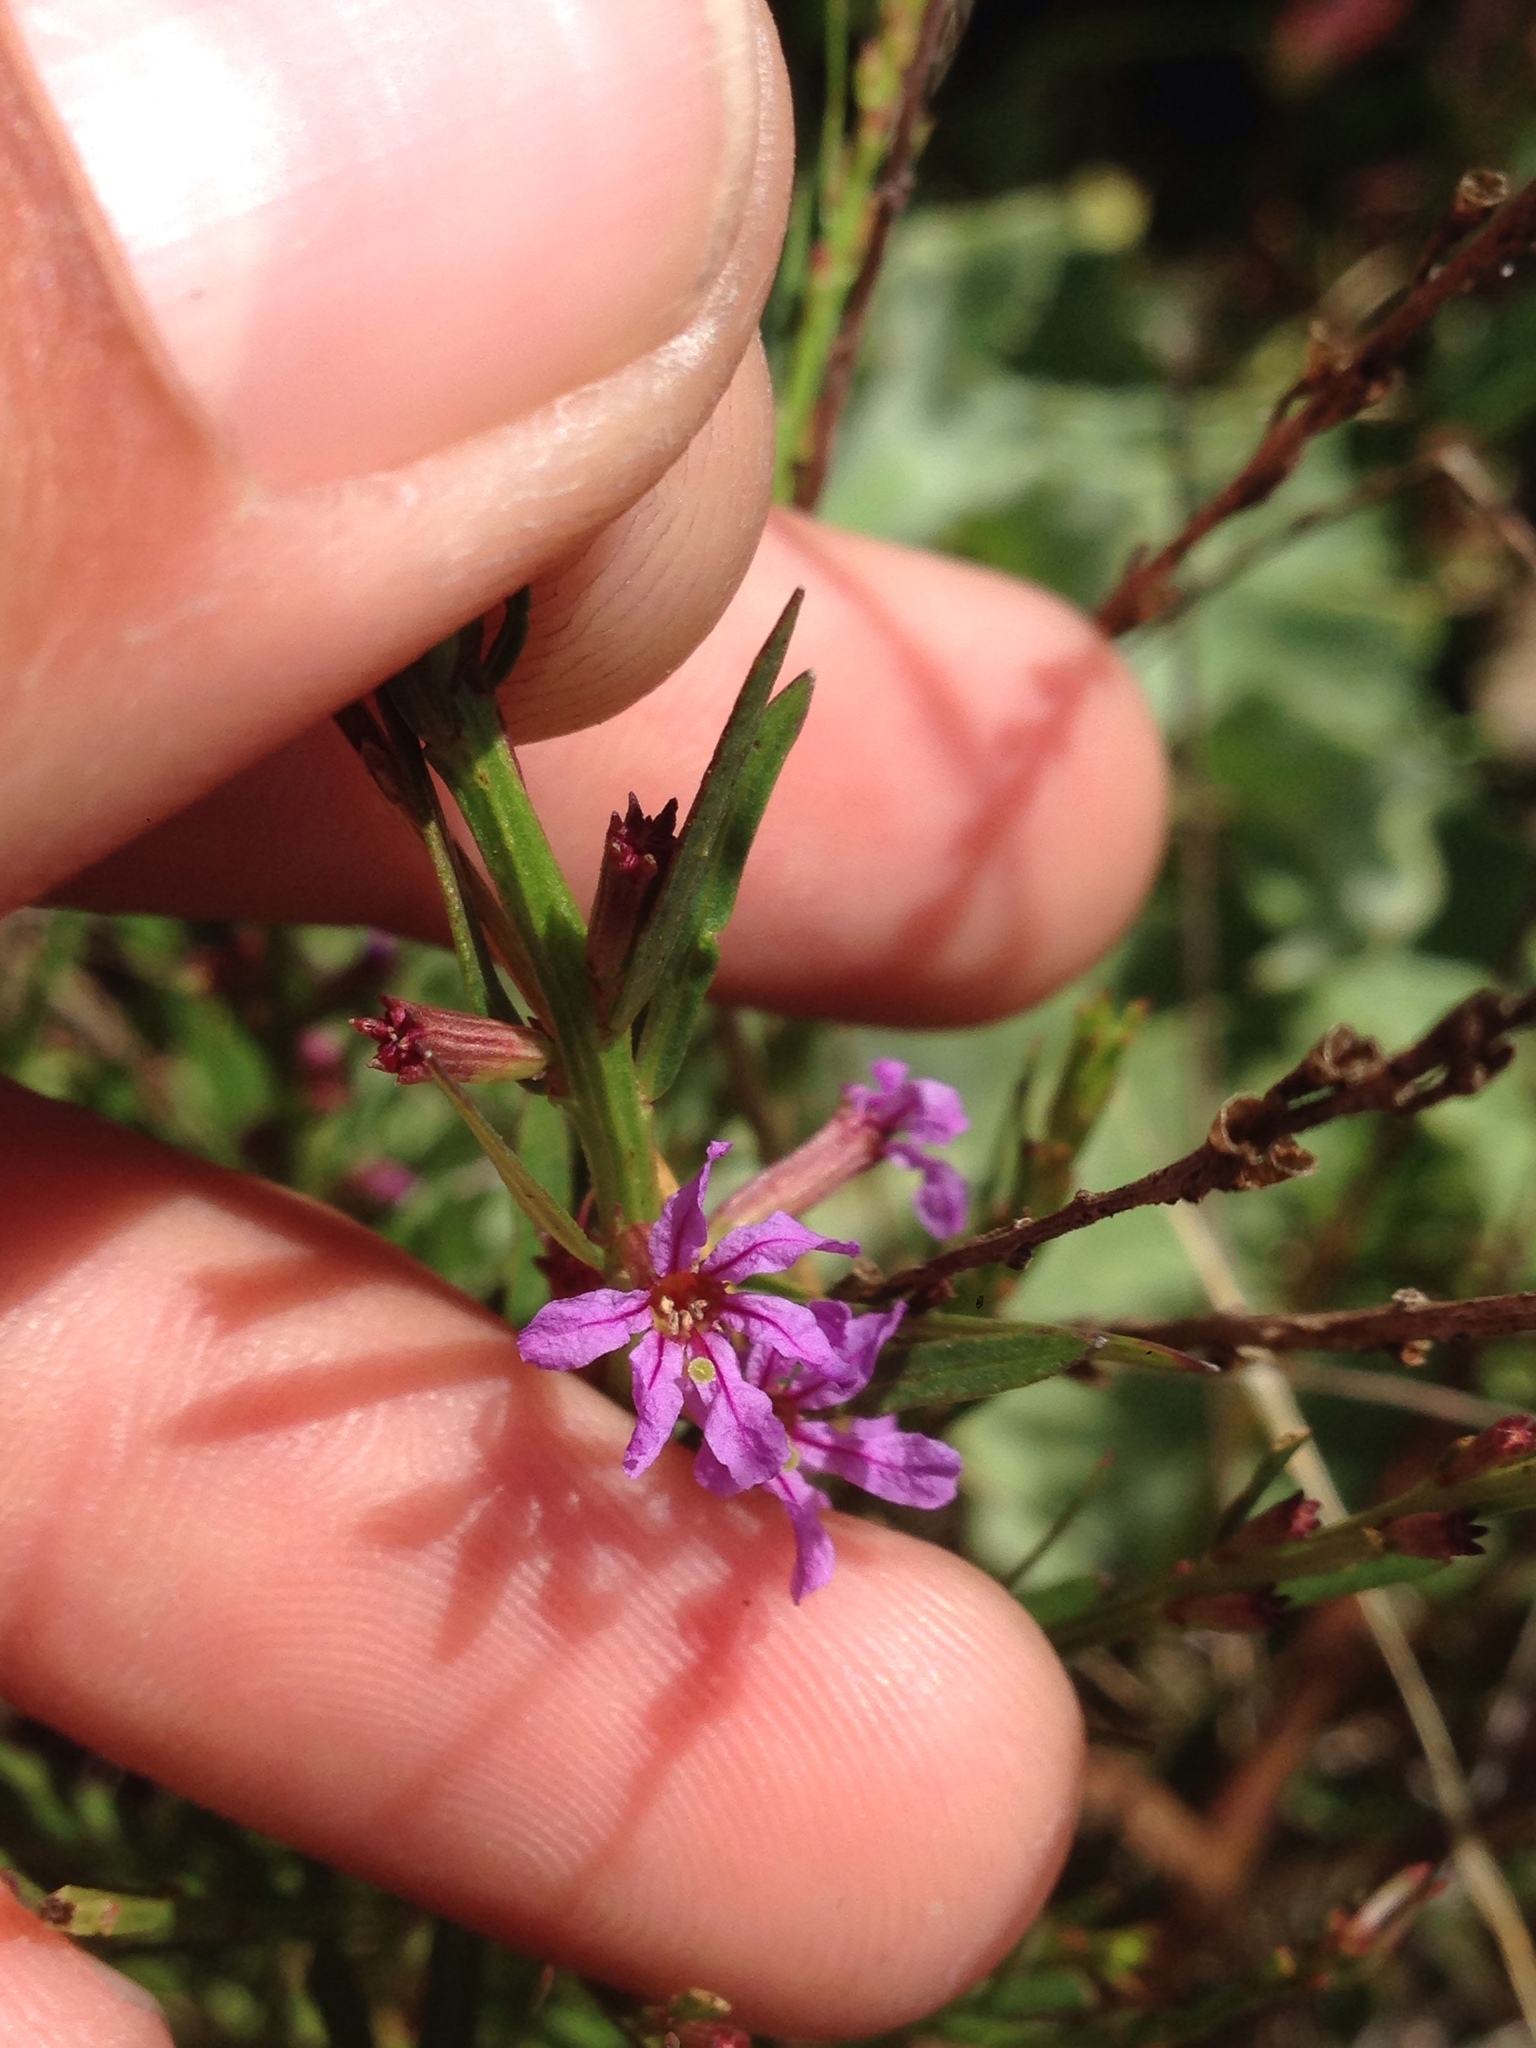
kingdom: Plantae
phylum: Tracheophyta
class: Magnoliopsida
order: Myrtales
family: Lythraceae
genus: Lythrum
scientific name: Lythrum californicum
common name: California loosestrife
